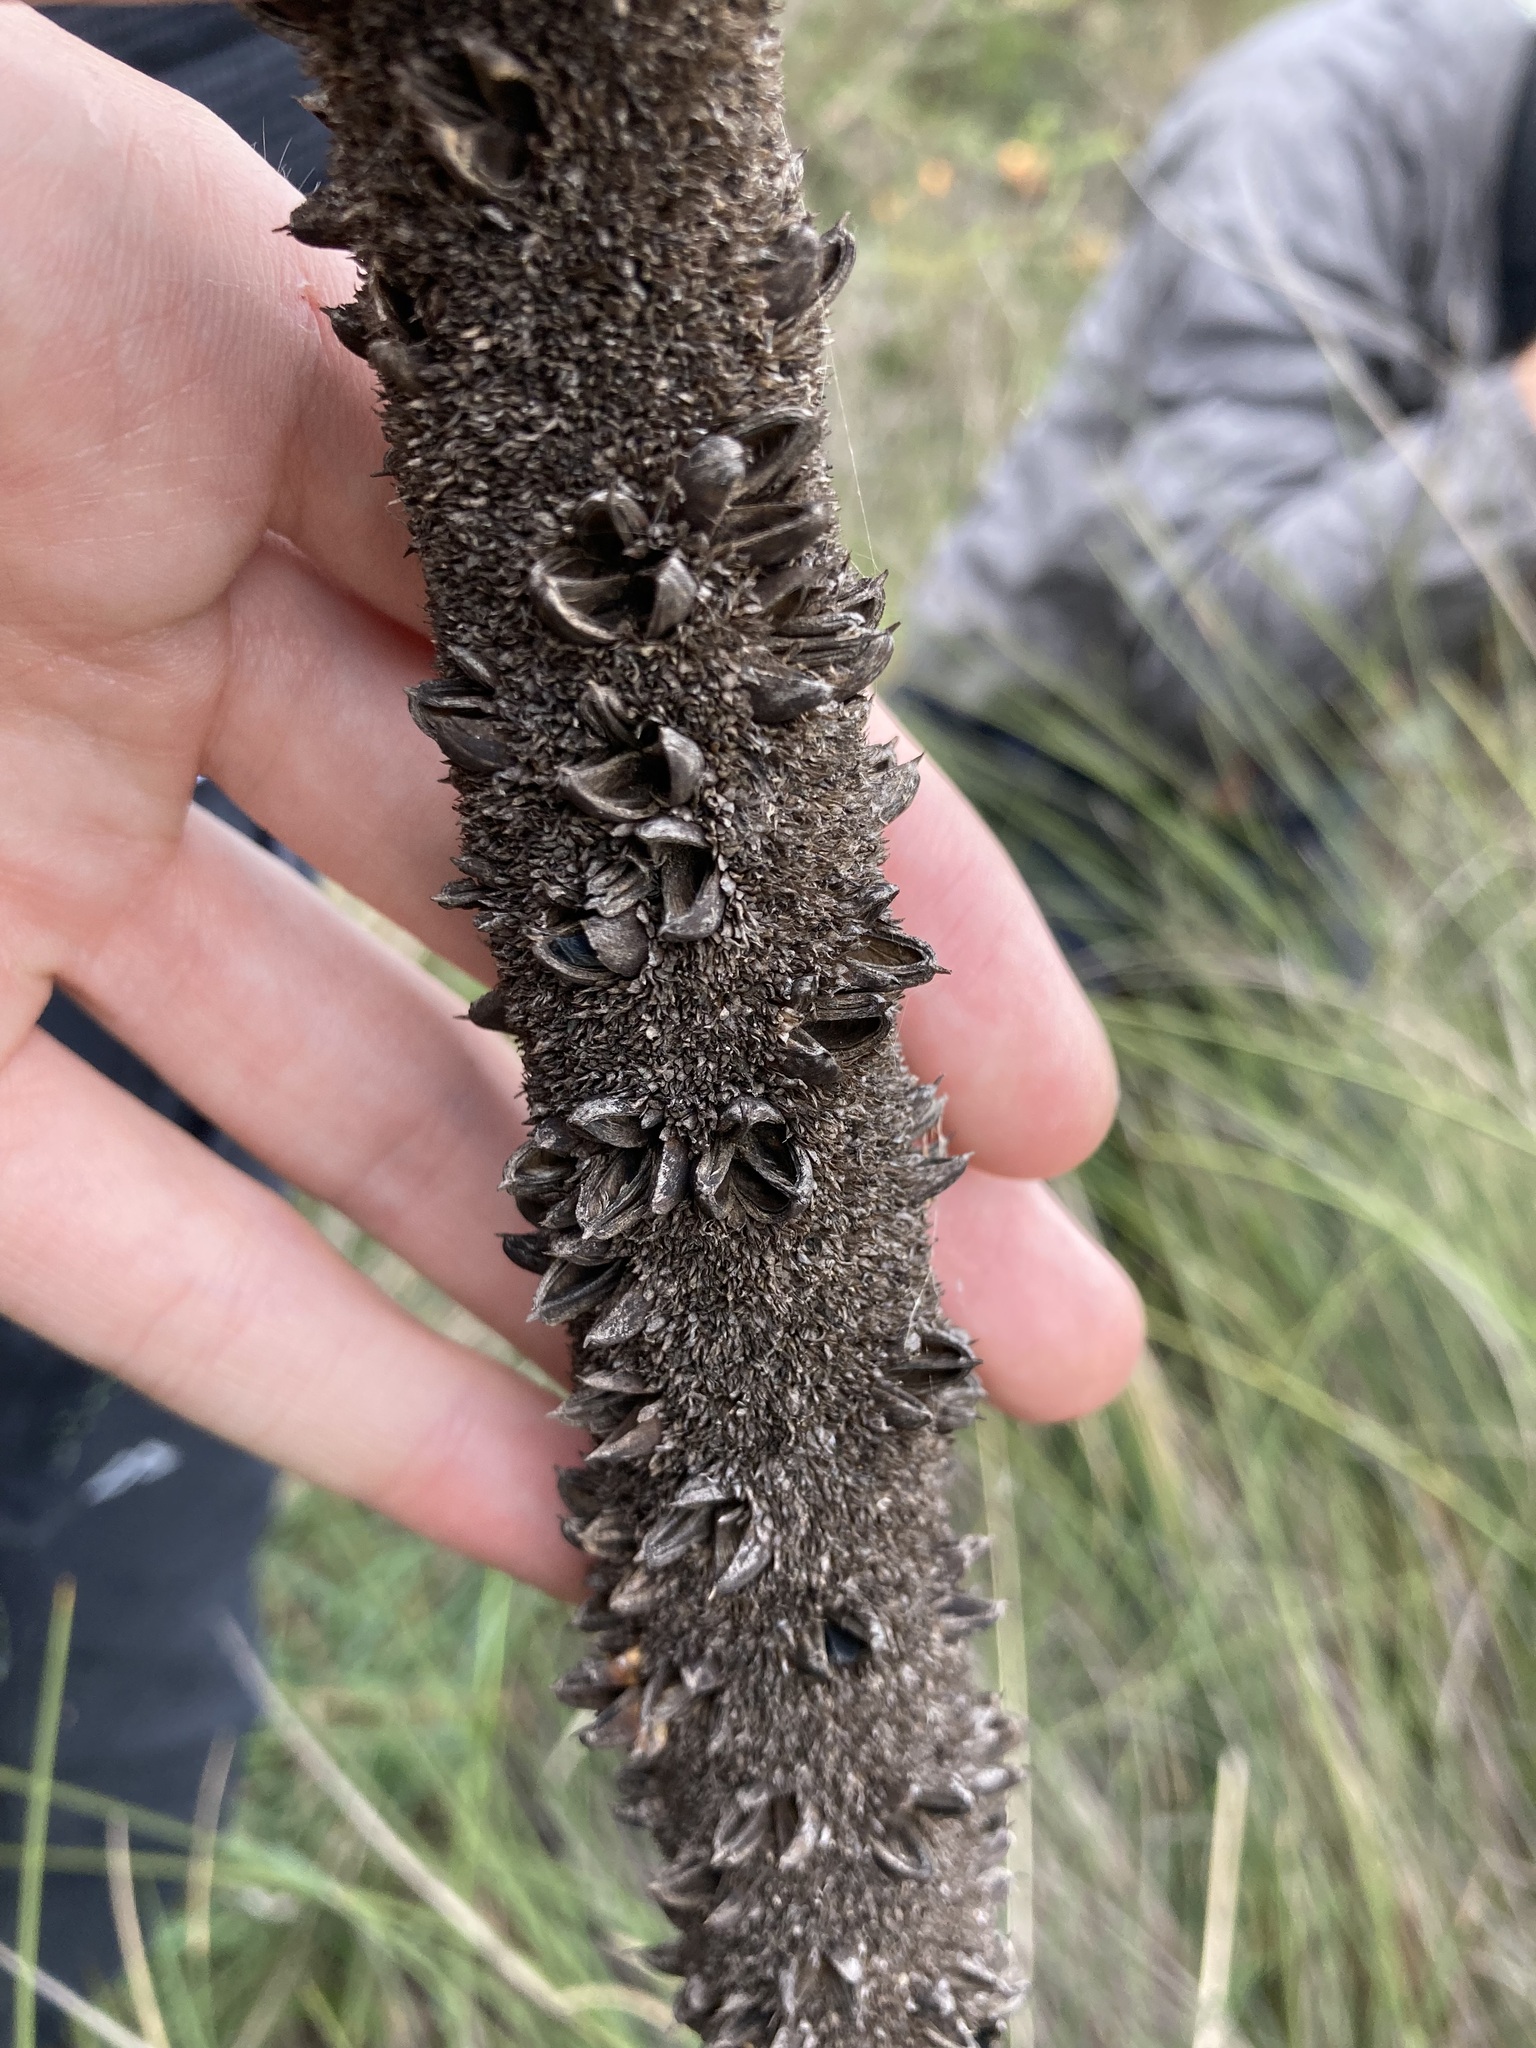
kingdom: Plantae
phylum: Tracheophyta
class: Liliopsida
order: Asparagales
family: Asphodelaceae
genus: Xanthorrhoea
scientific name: Xanthorrhoea brunonis
